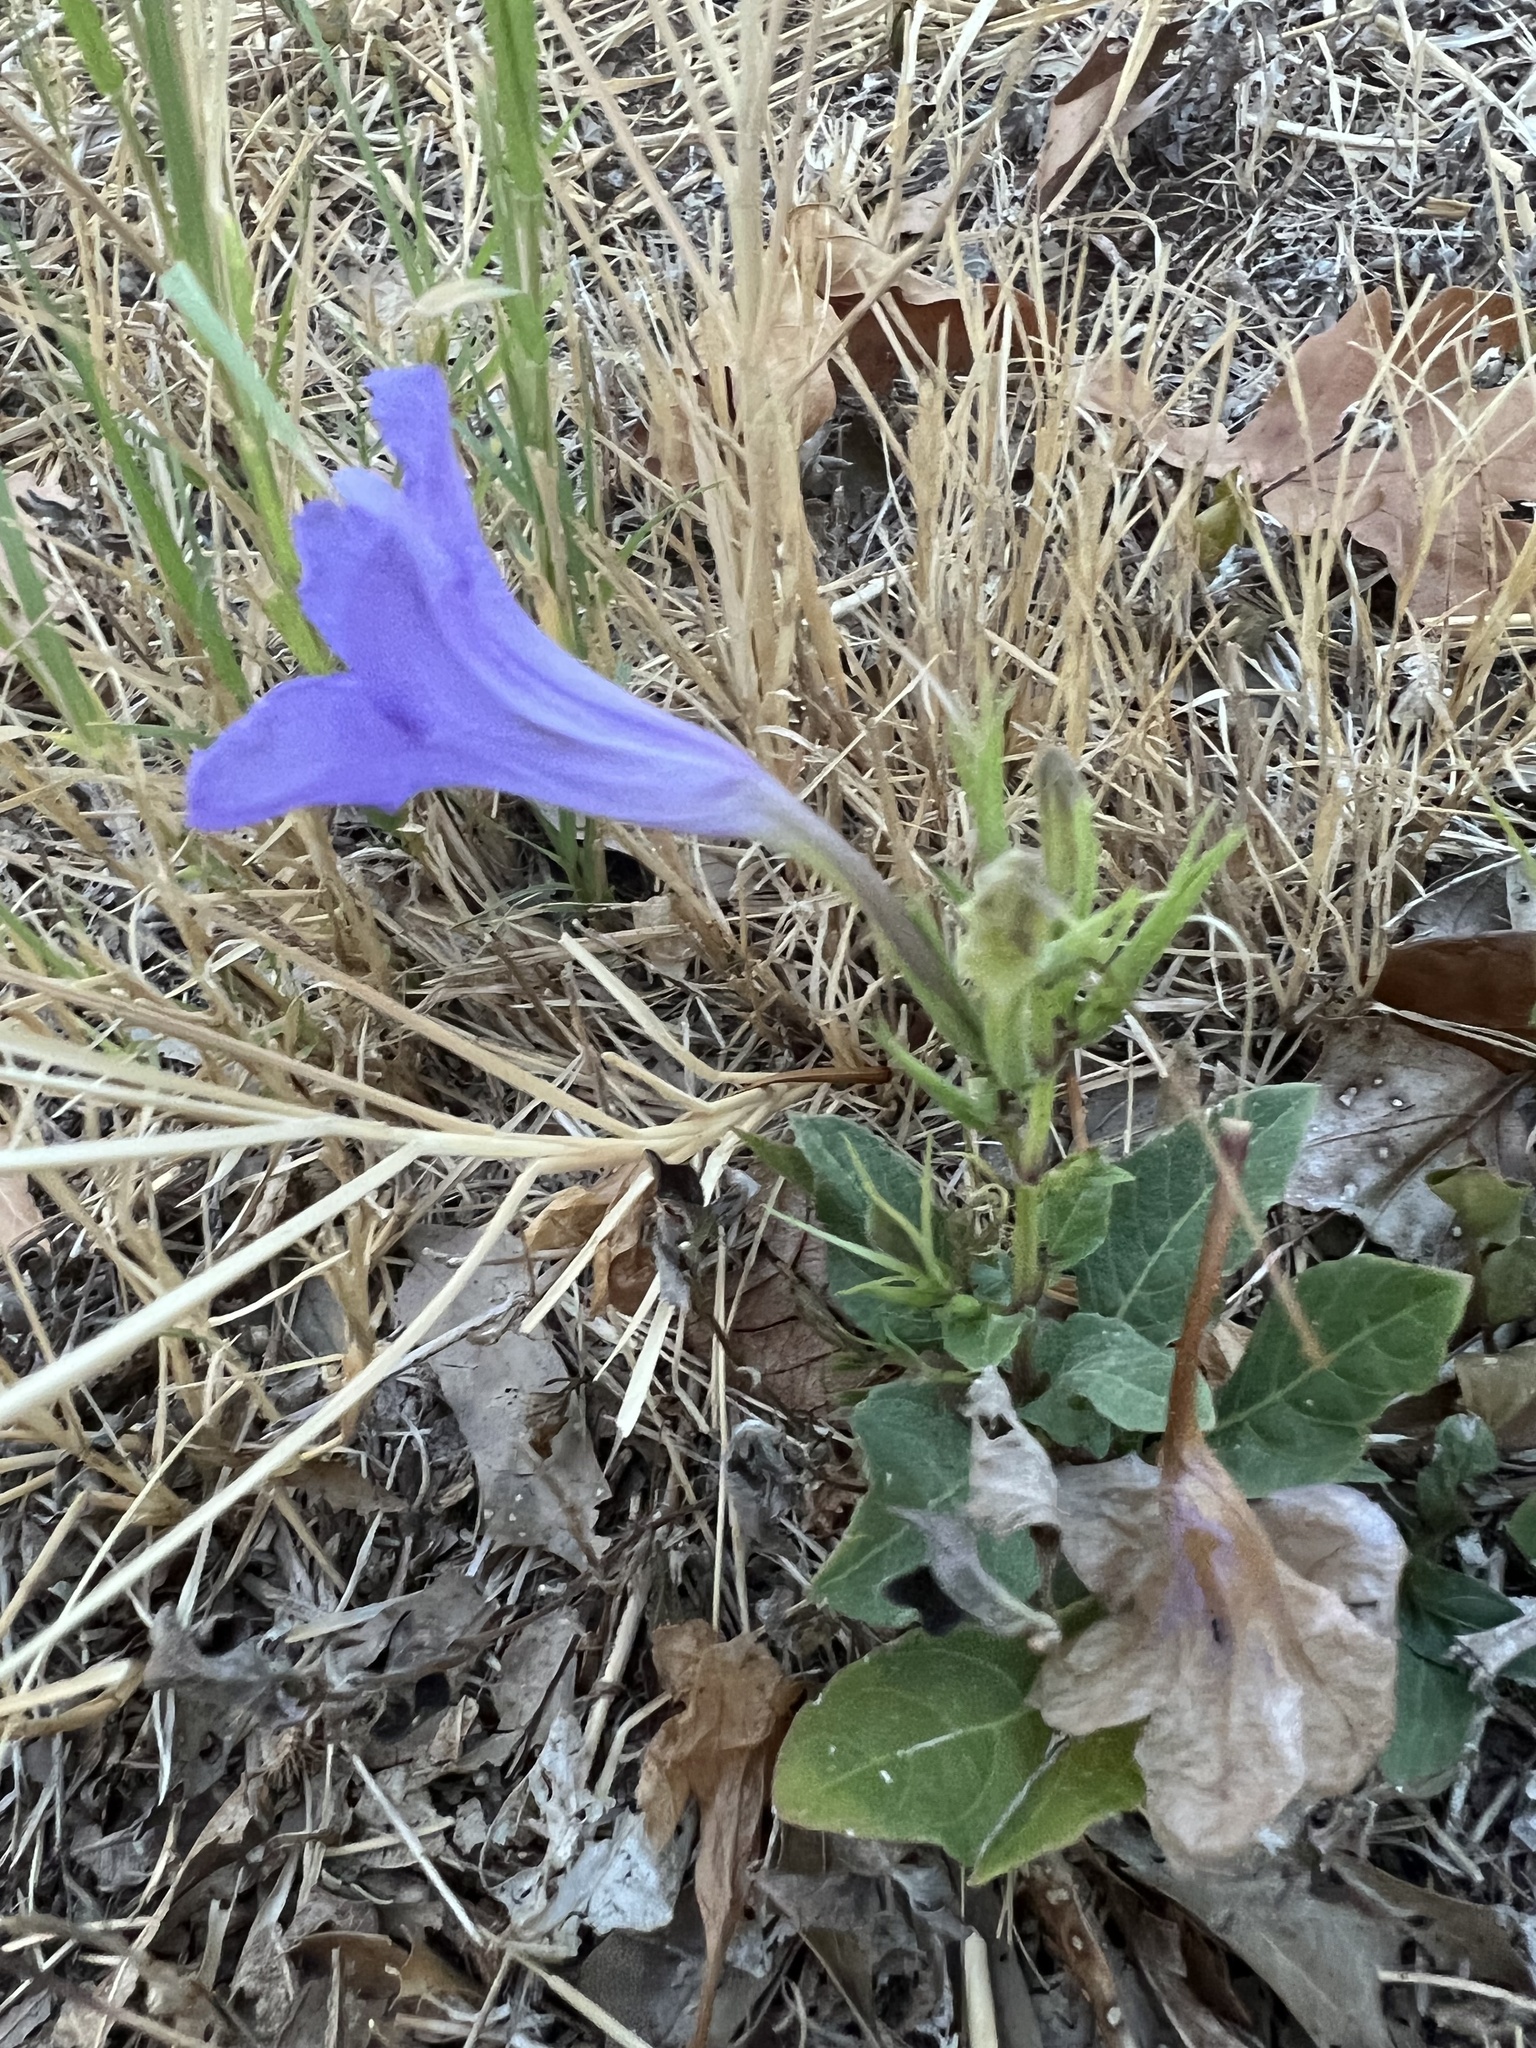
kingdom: Plantae
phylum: Tracheophyta
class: Magnoliopsida
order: Lamiales
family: Acanthaceae
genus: Ruellia
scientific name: Ruellia ciliatiflora
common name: Hairyflower wild petunia
